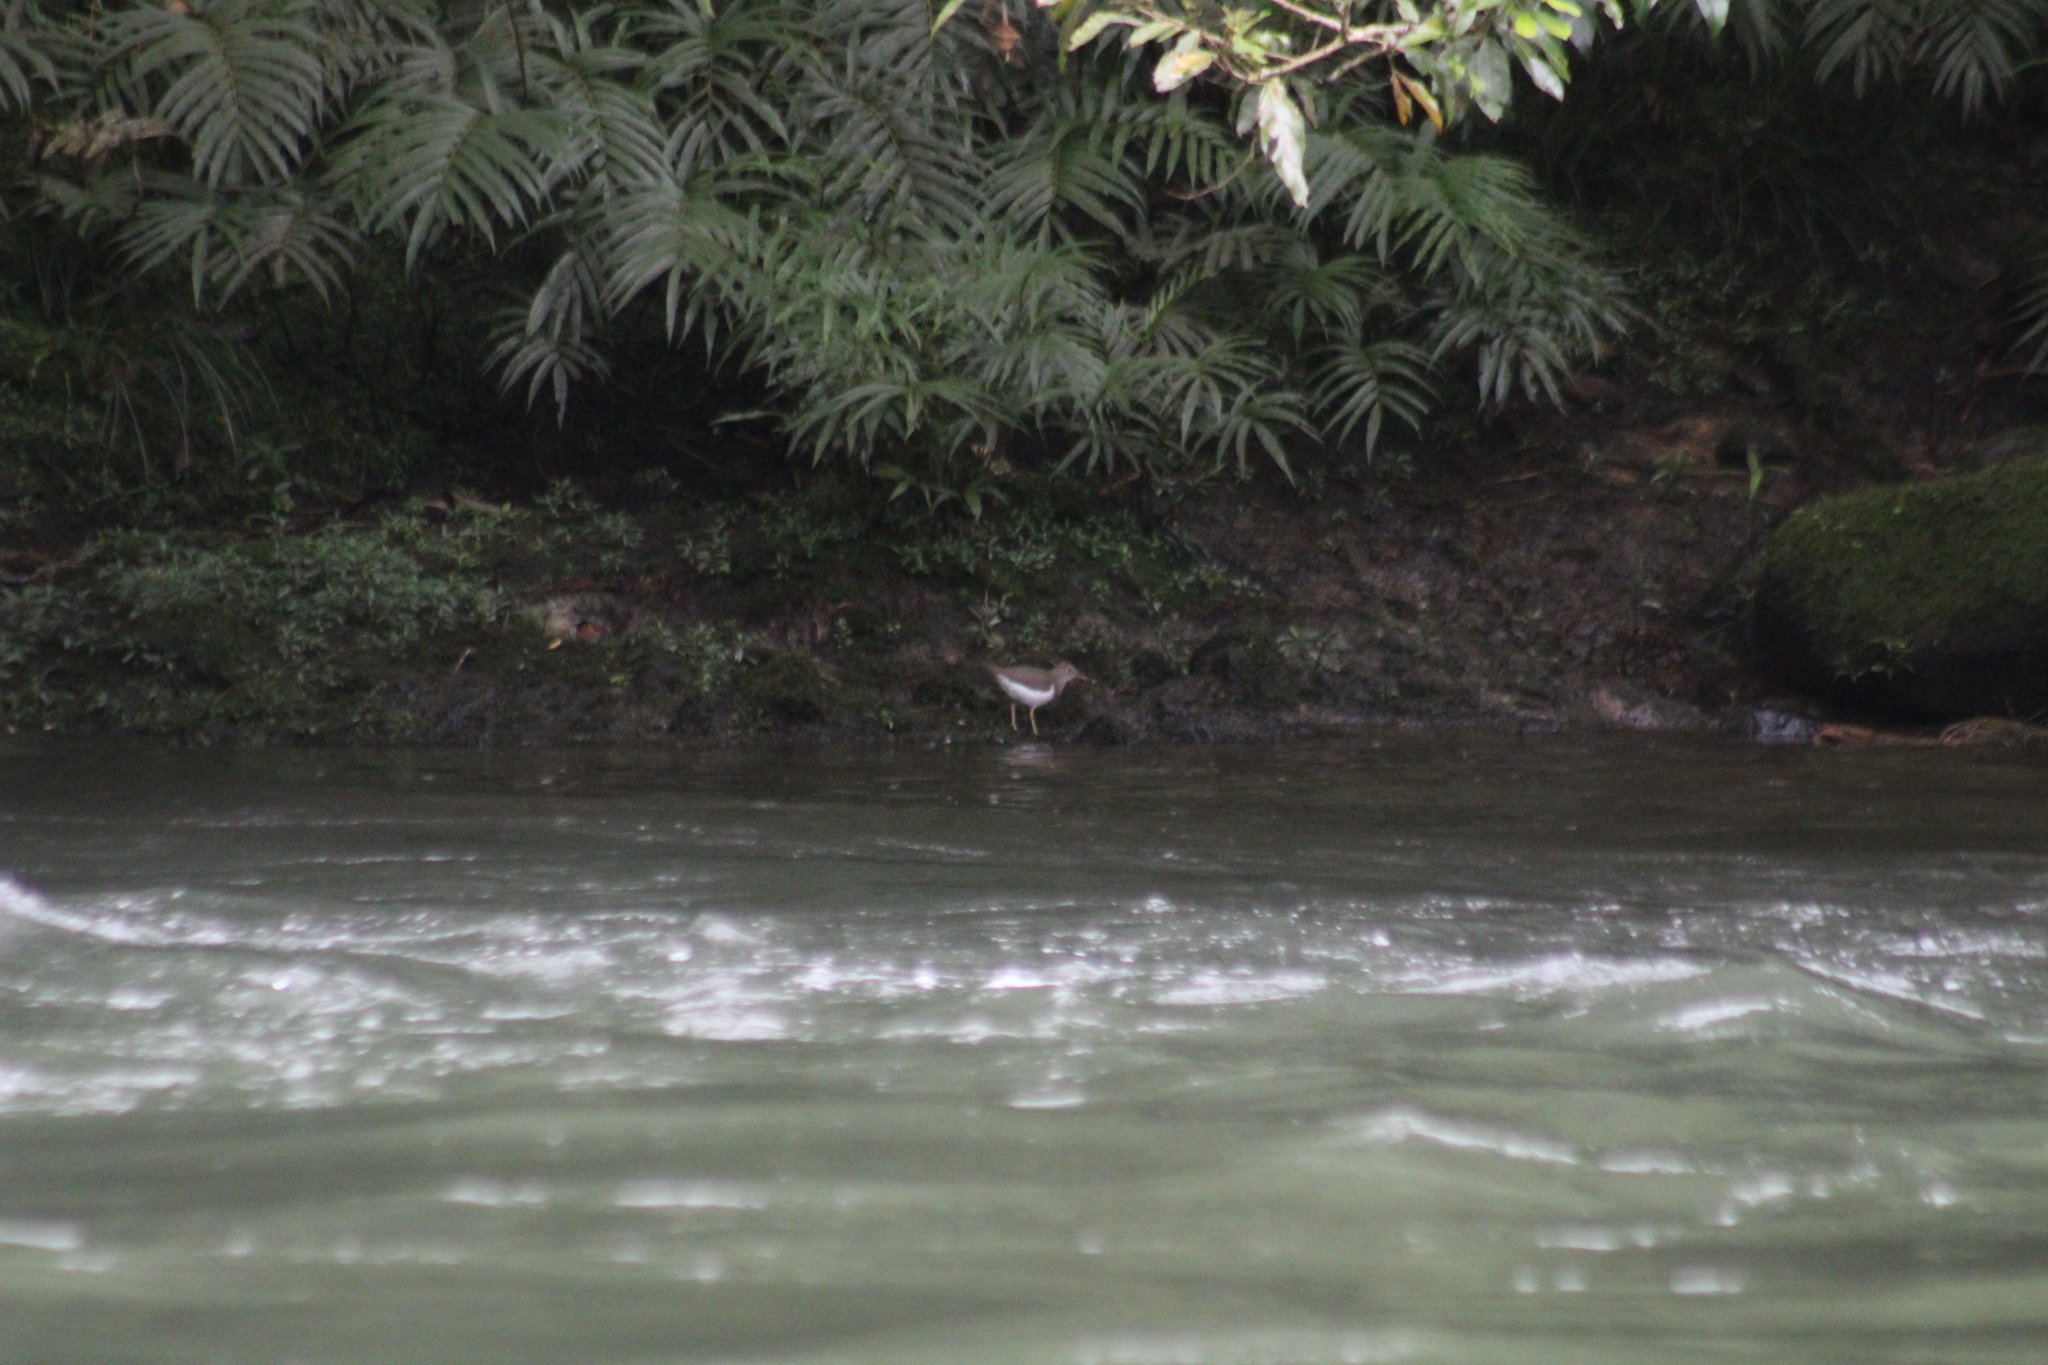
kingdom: Animalia
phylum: Chordata
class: Aves
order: Charadriiformes
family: Scolopacidae
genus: Actitis
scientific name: Actitis macularius
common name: Spotted sandpiper
